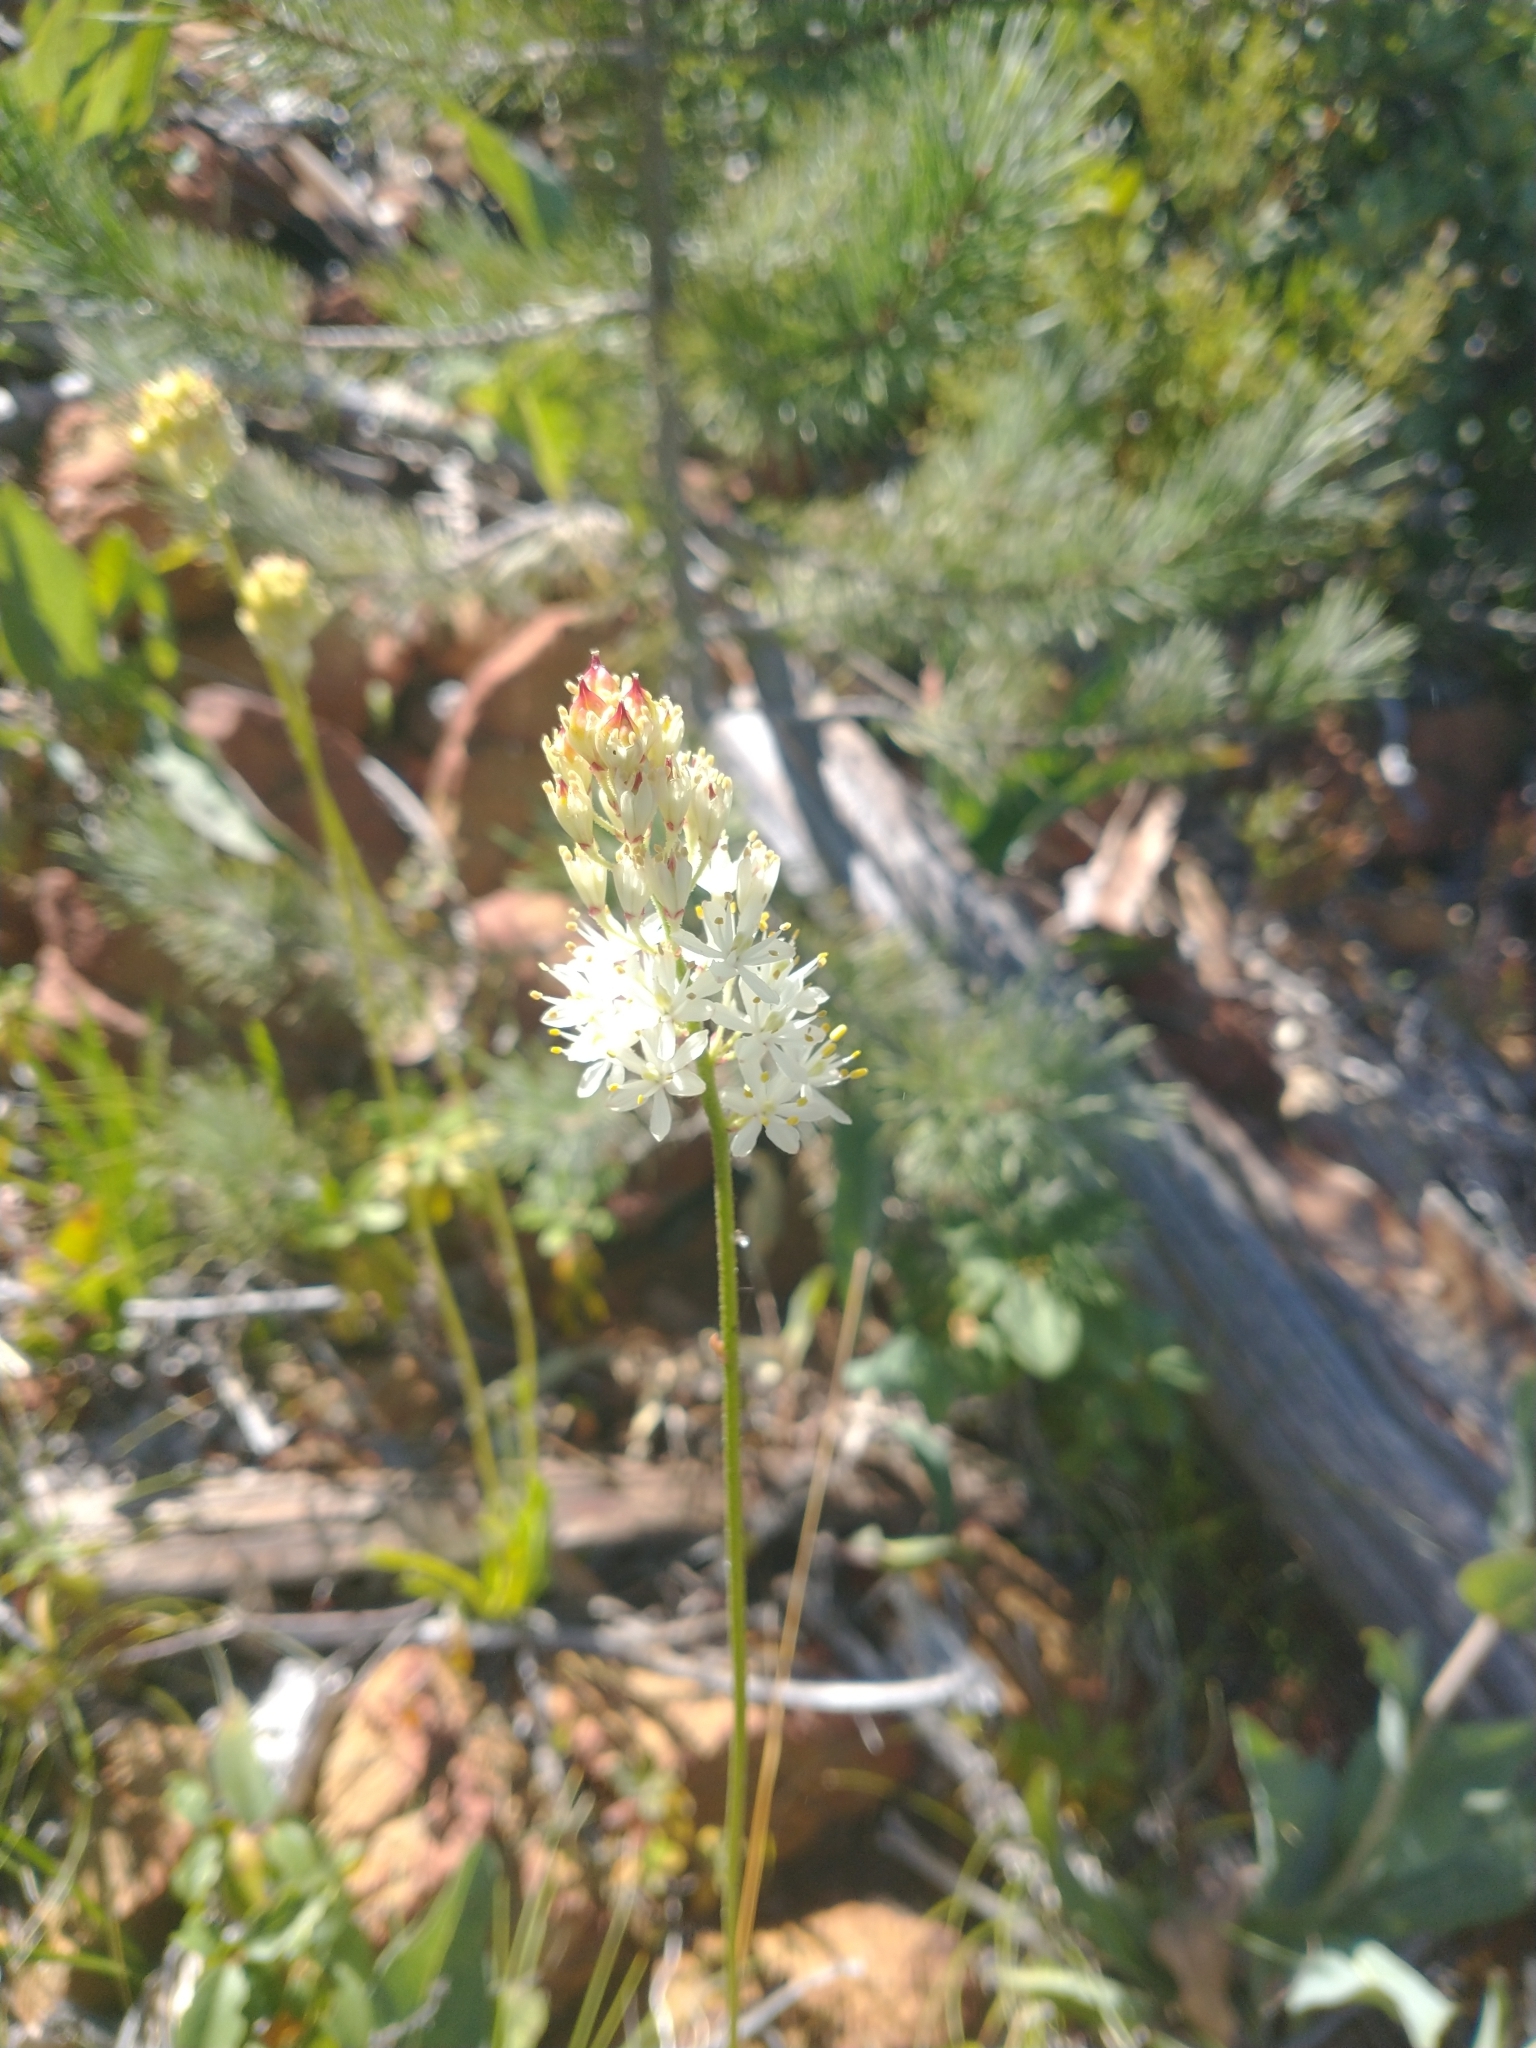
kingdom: Plantae
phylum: Tracheophyta
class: Liliopsida
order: Alismatales
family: Tofieldiaceae
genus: Triantha
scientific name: Triantha occidentalis
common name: Western false asphodel
